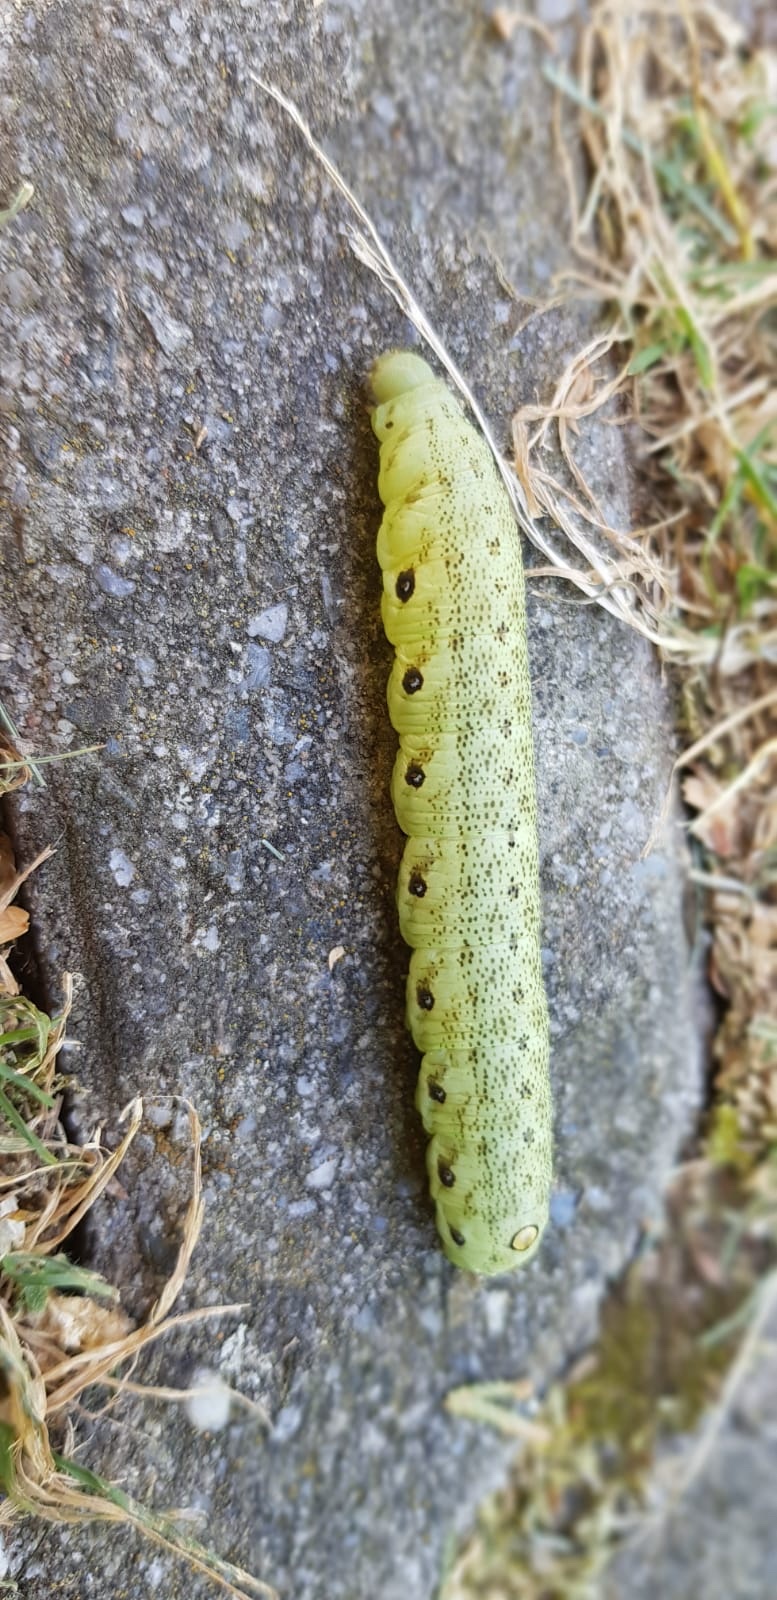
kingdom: Animalia
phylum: Arthropoda
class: Insecta
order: Lepidoptera
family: Sphingidae
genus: Proserpinus
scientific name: Proserpinus proserpina
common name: Willowherb hawkmoth
